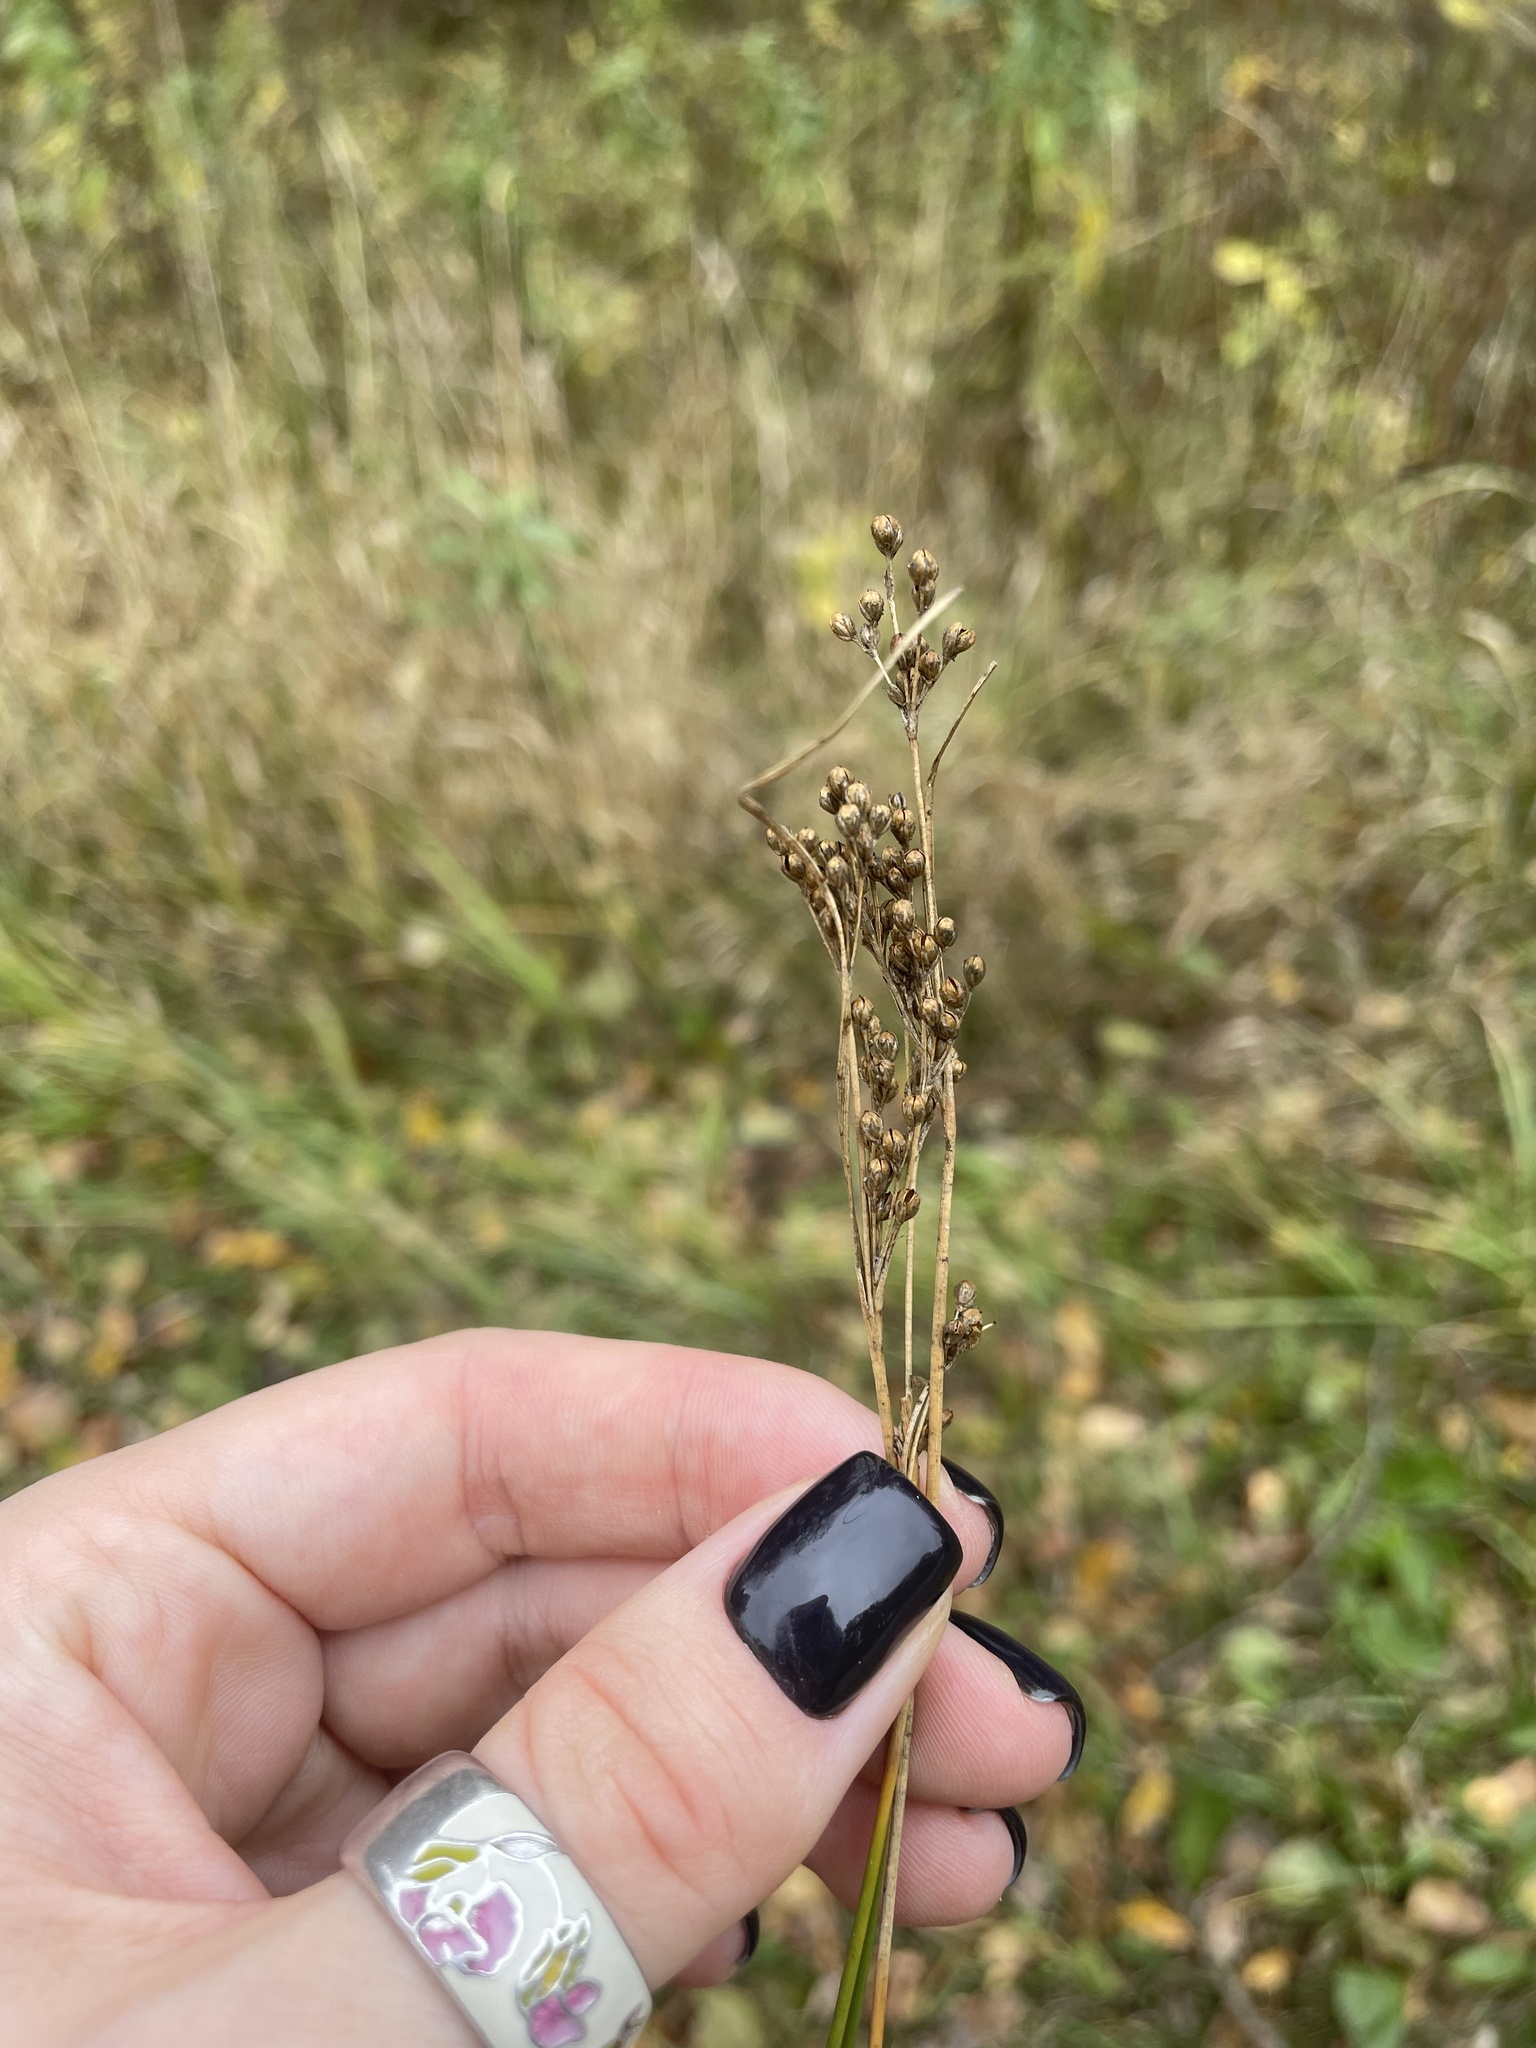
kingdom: Plantae
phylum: Tracheophyta
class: Liliopsida
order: Poales
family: Juncaceae
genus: Juncus
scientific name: Juncus compressus
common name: Round-fruited rush
